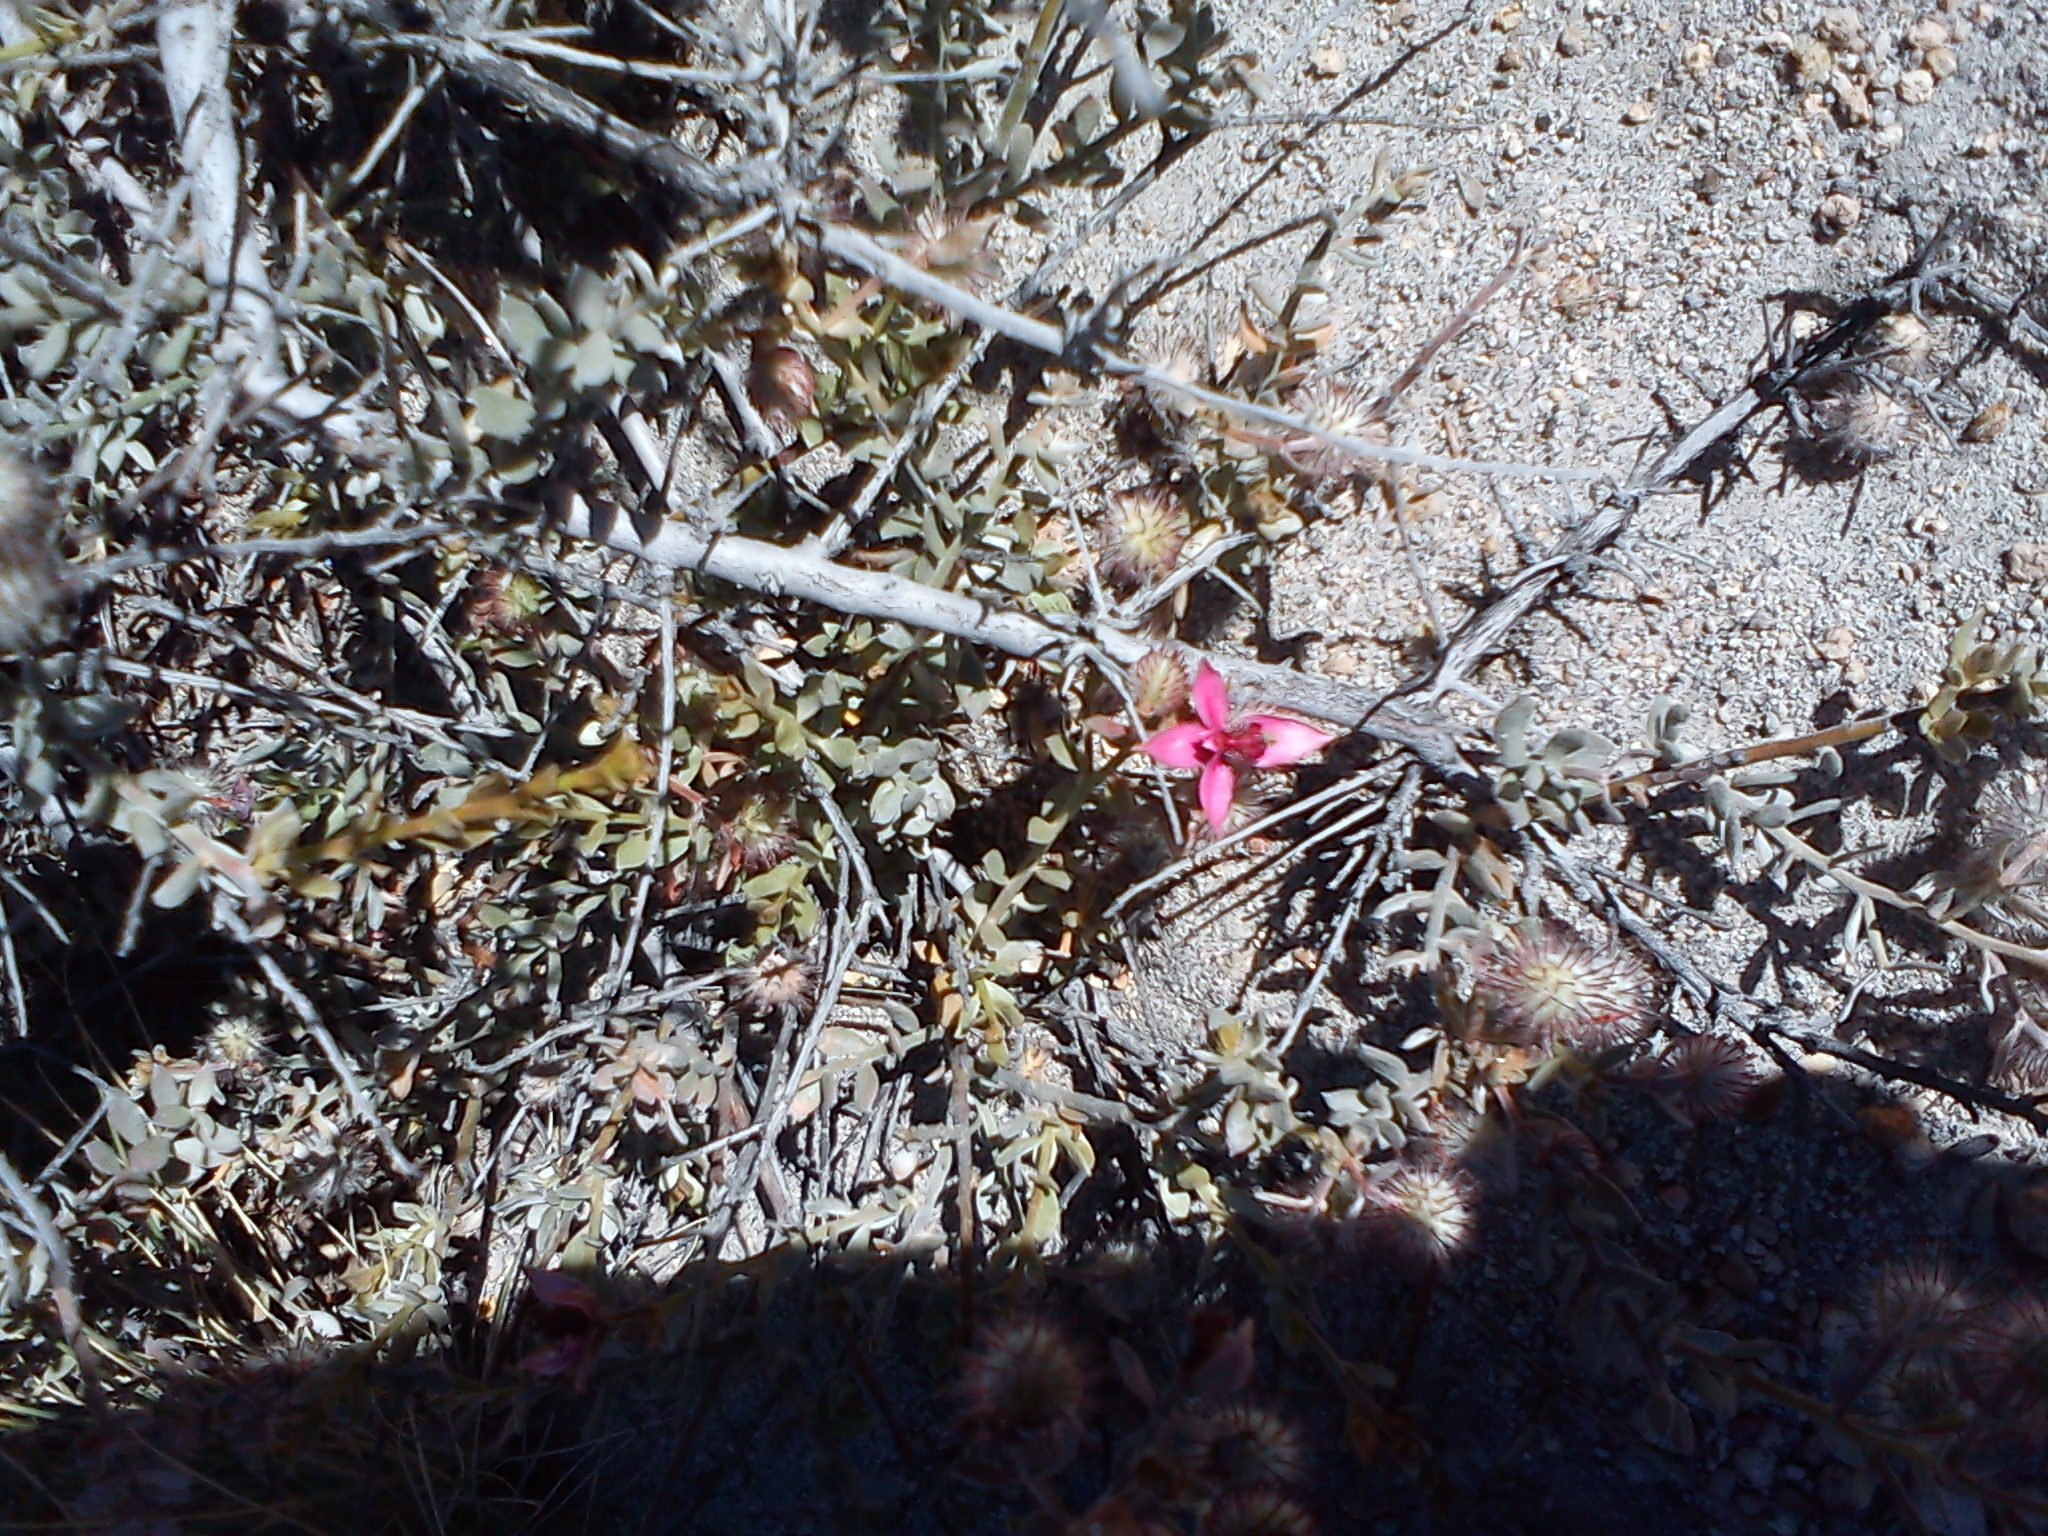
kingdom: Plantae
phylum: Tracheophyta
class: Magnoliopsida
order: Zygophyllales
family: Krameriaceae
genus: Krameria
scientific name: Krameria lappacea
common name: Rhatany
